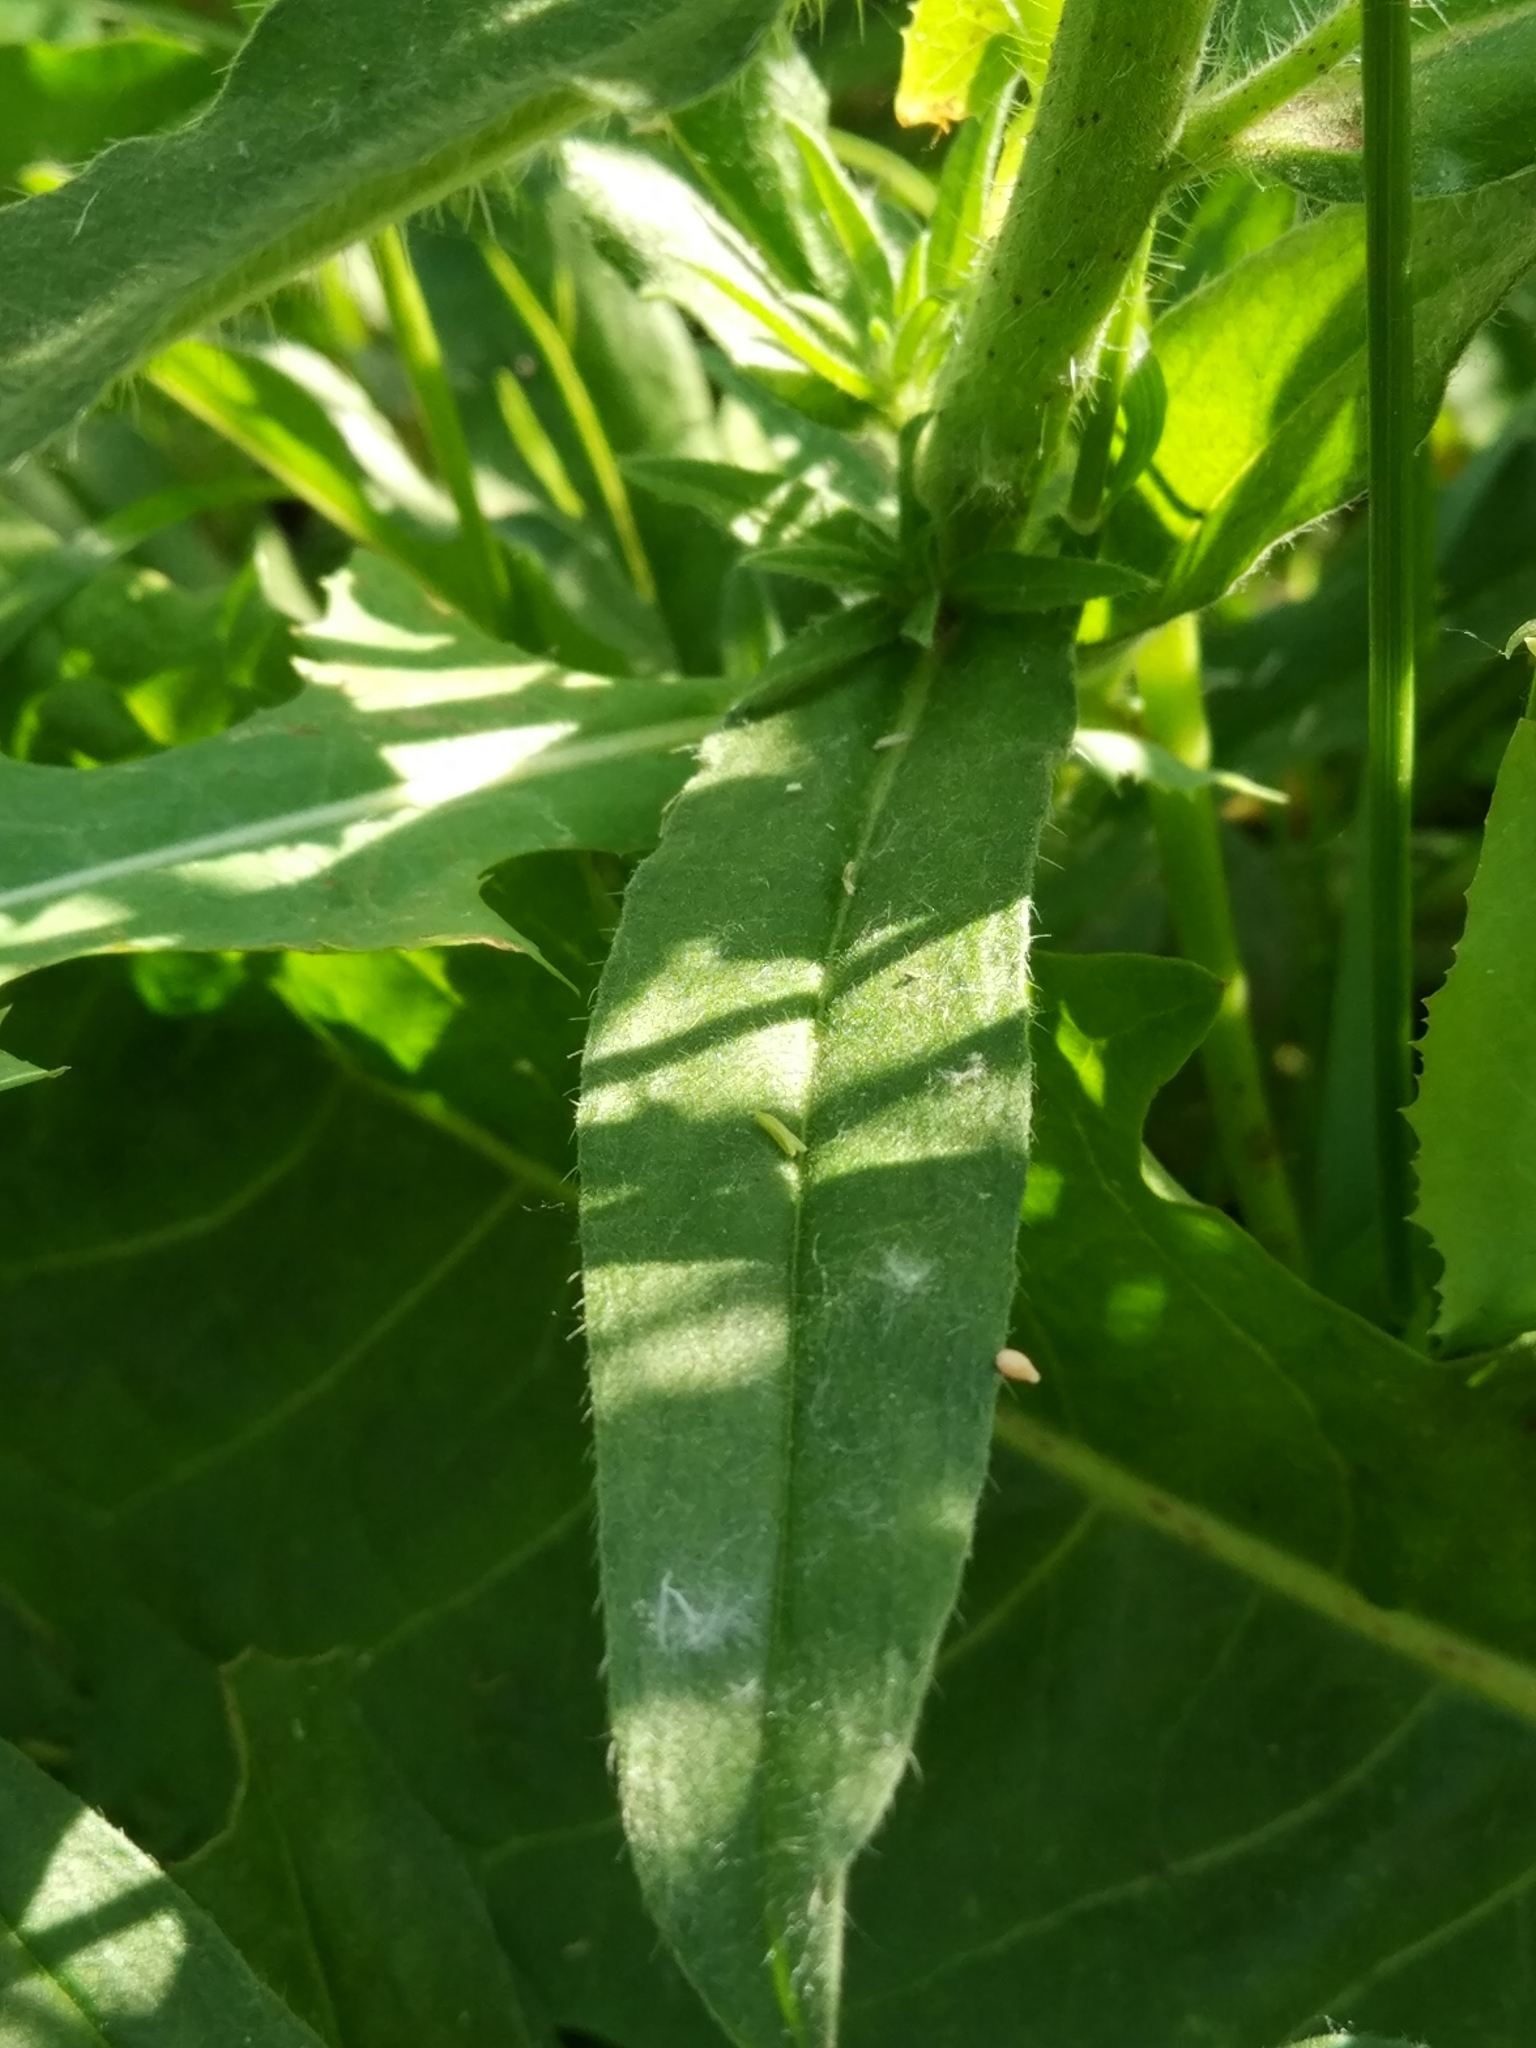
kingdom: Plantae
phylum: Tracheophyta
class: Magnoliopsida
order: Boraginales
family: Boraginaceae
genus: Echium
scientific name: Echium vulgare
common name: Common viper's bugloss
